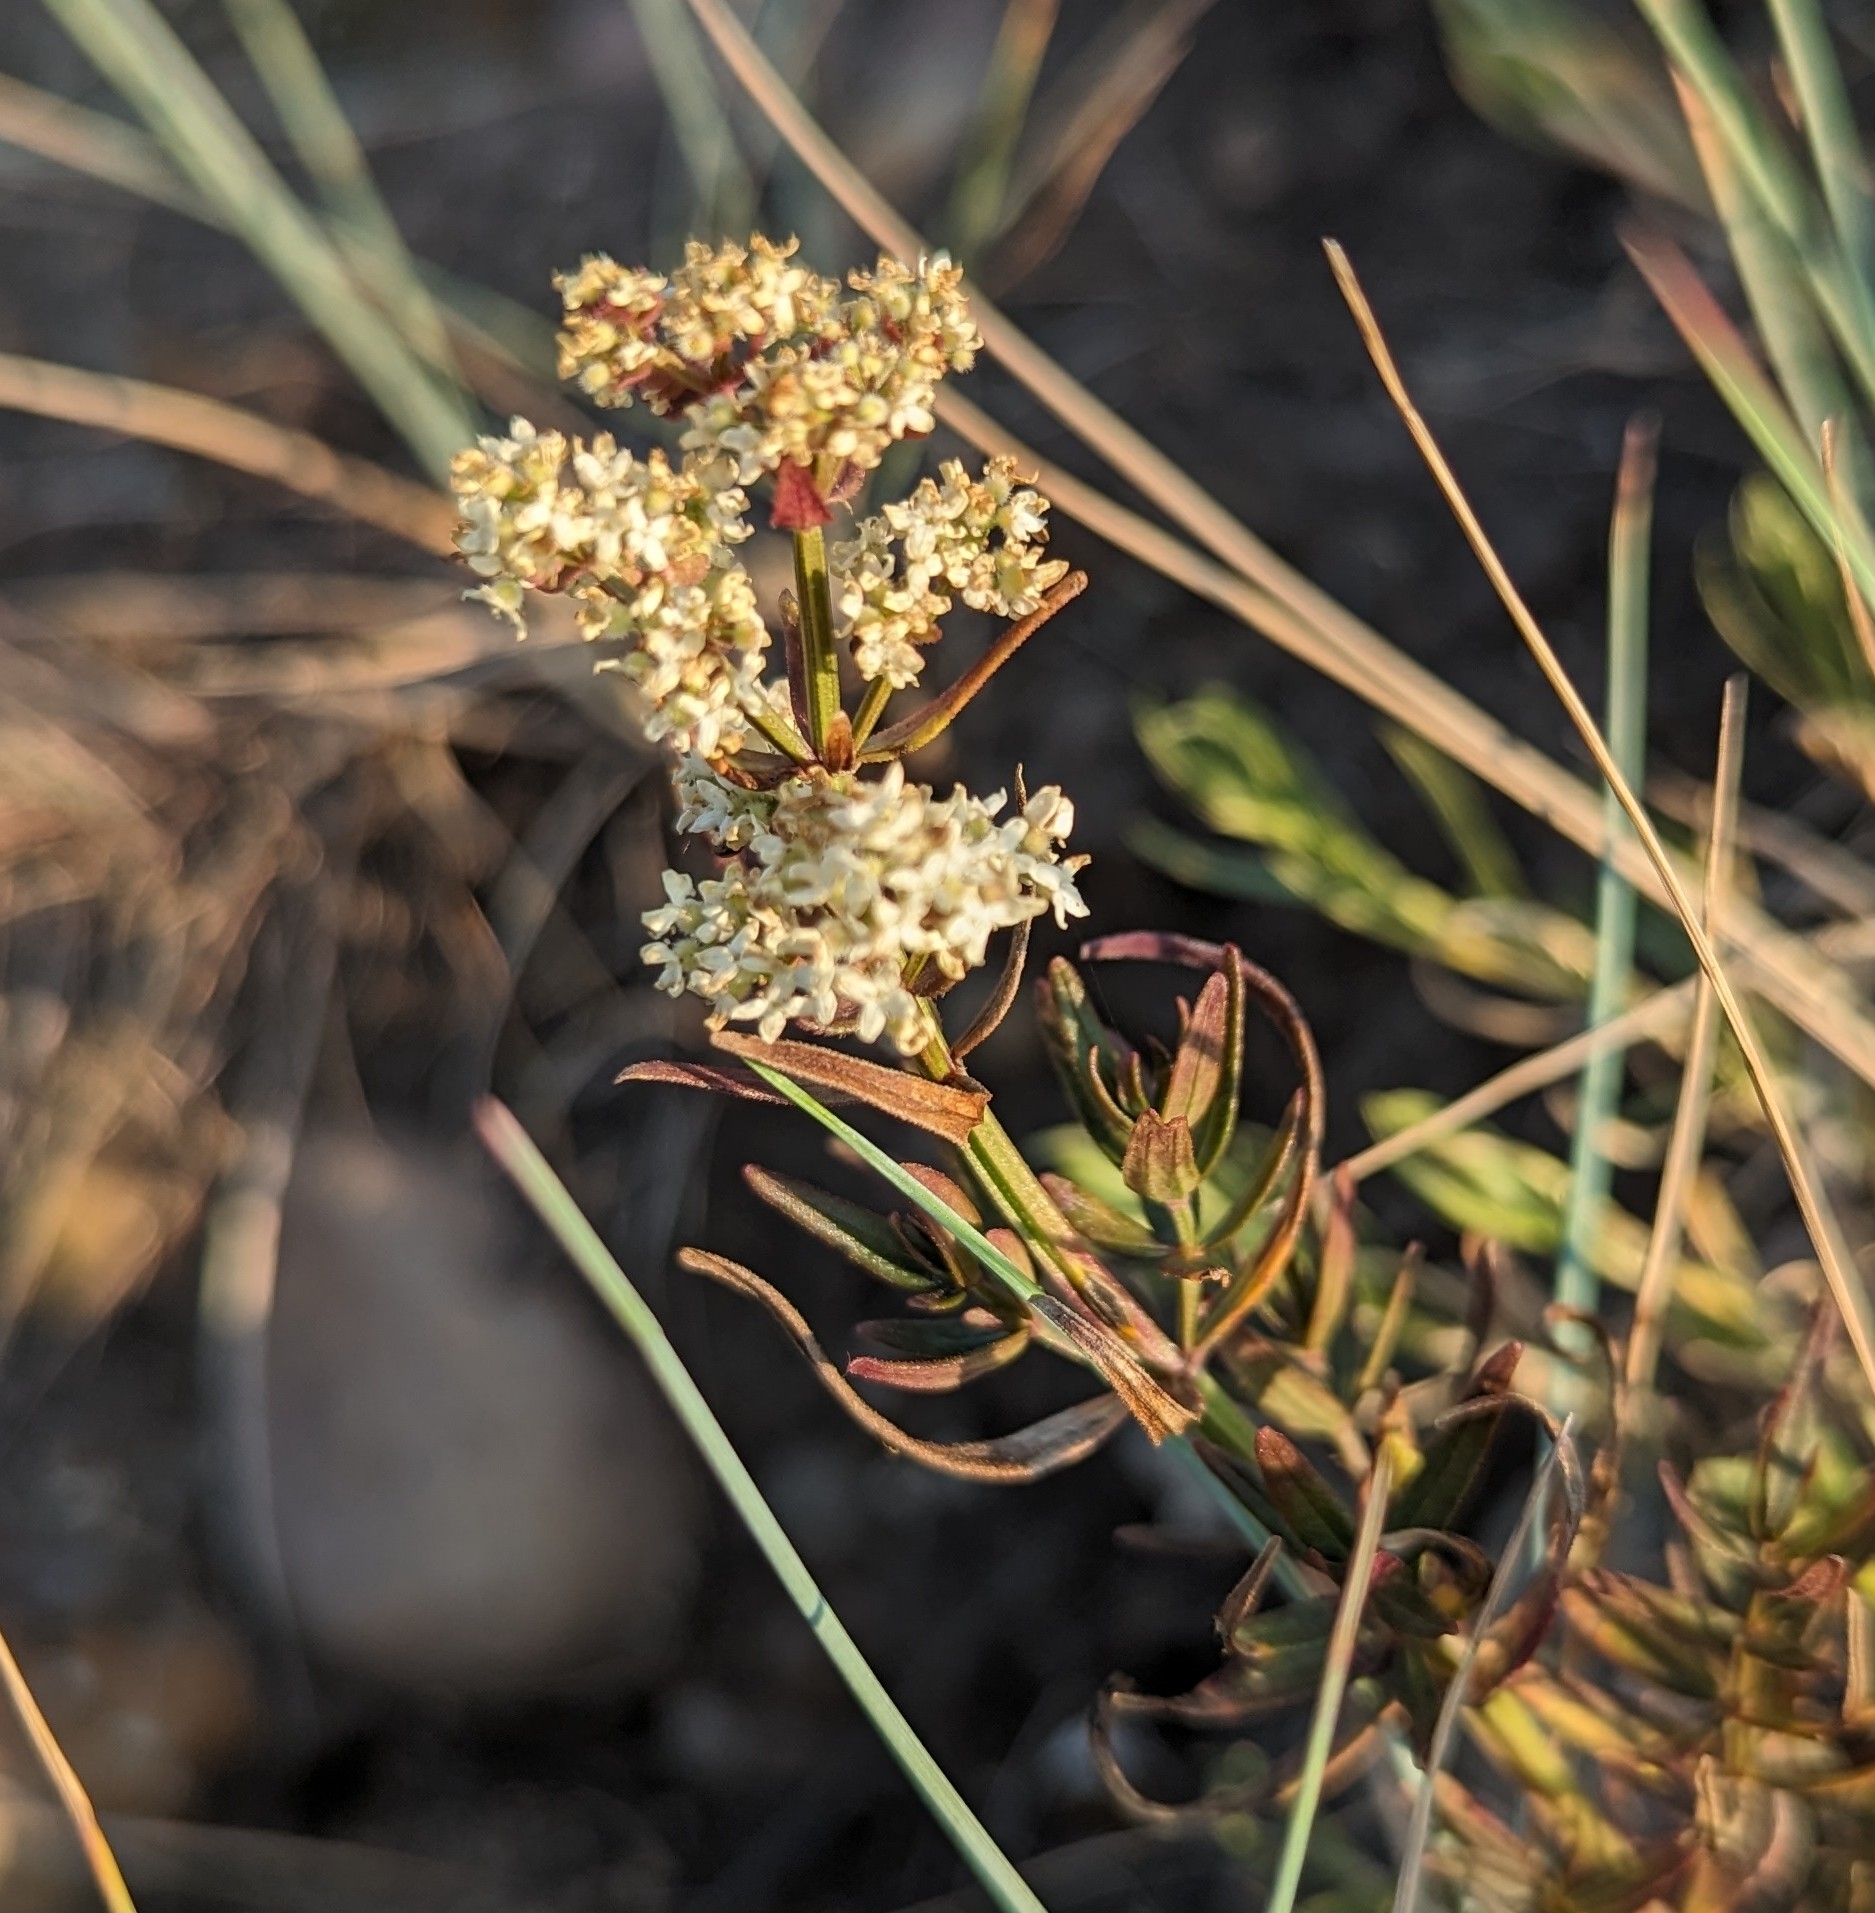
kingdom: Plantae
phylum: Tracheophyta
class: Magnoliopsida
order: Gentianales
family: Rubiaceae
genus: Galium
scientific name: Galium boreale
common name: Northern bedstraw
